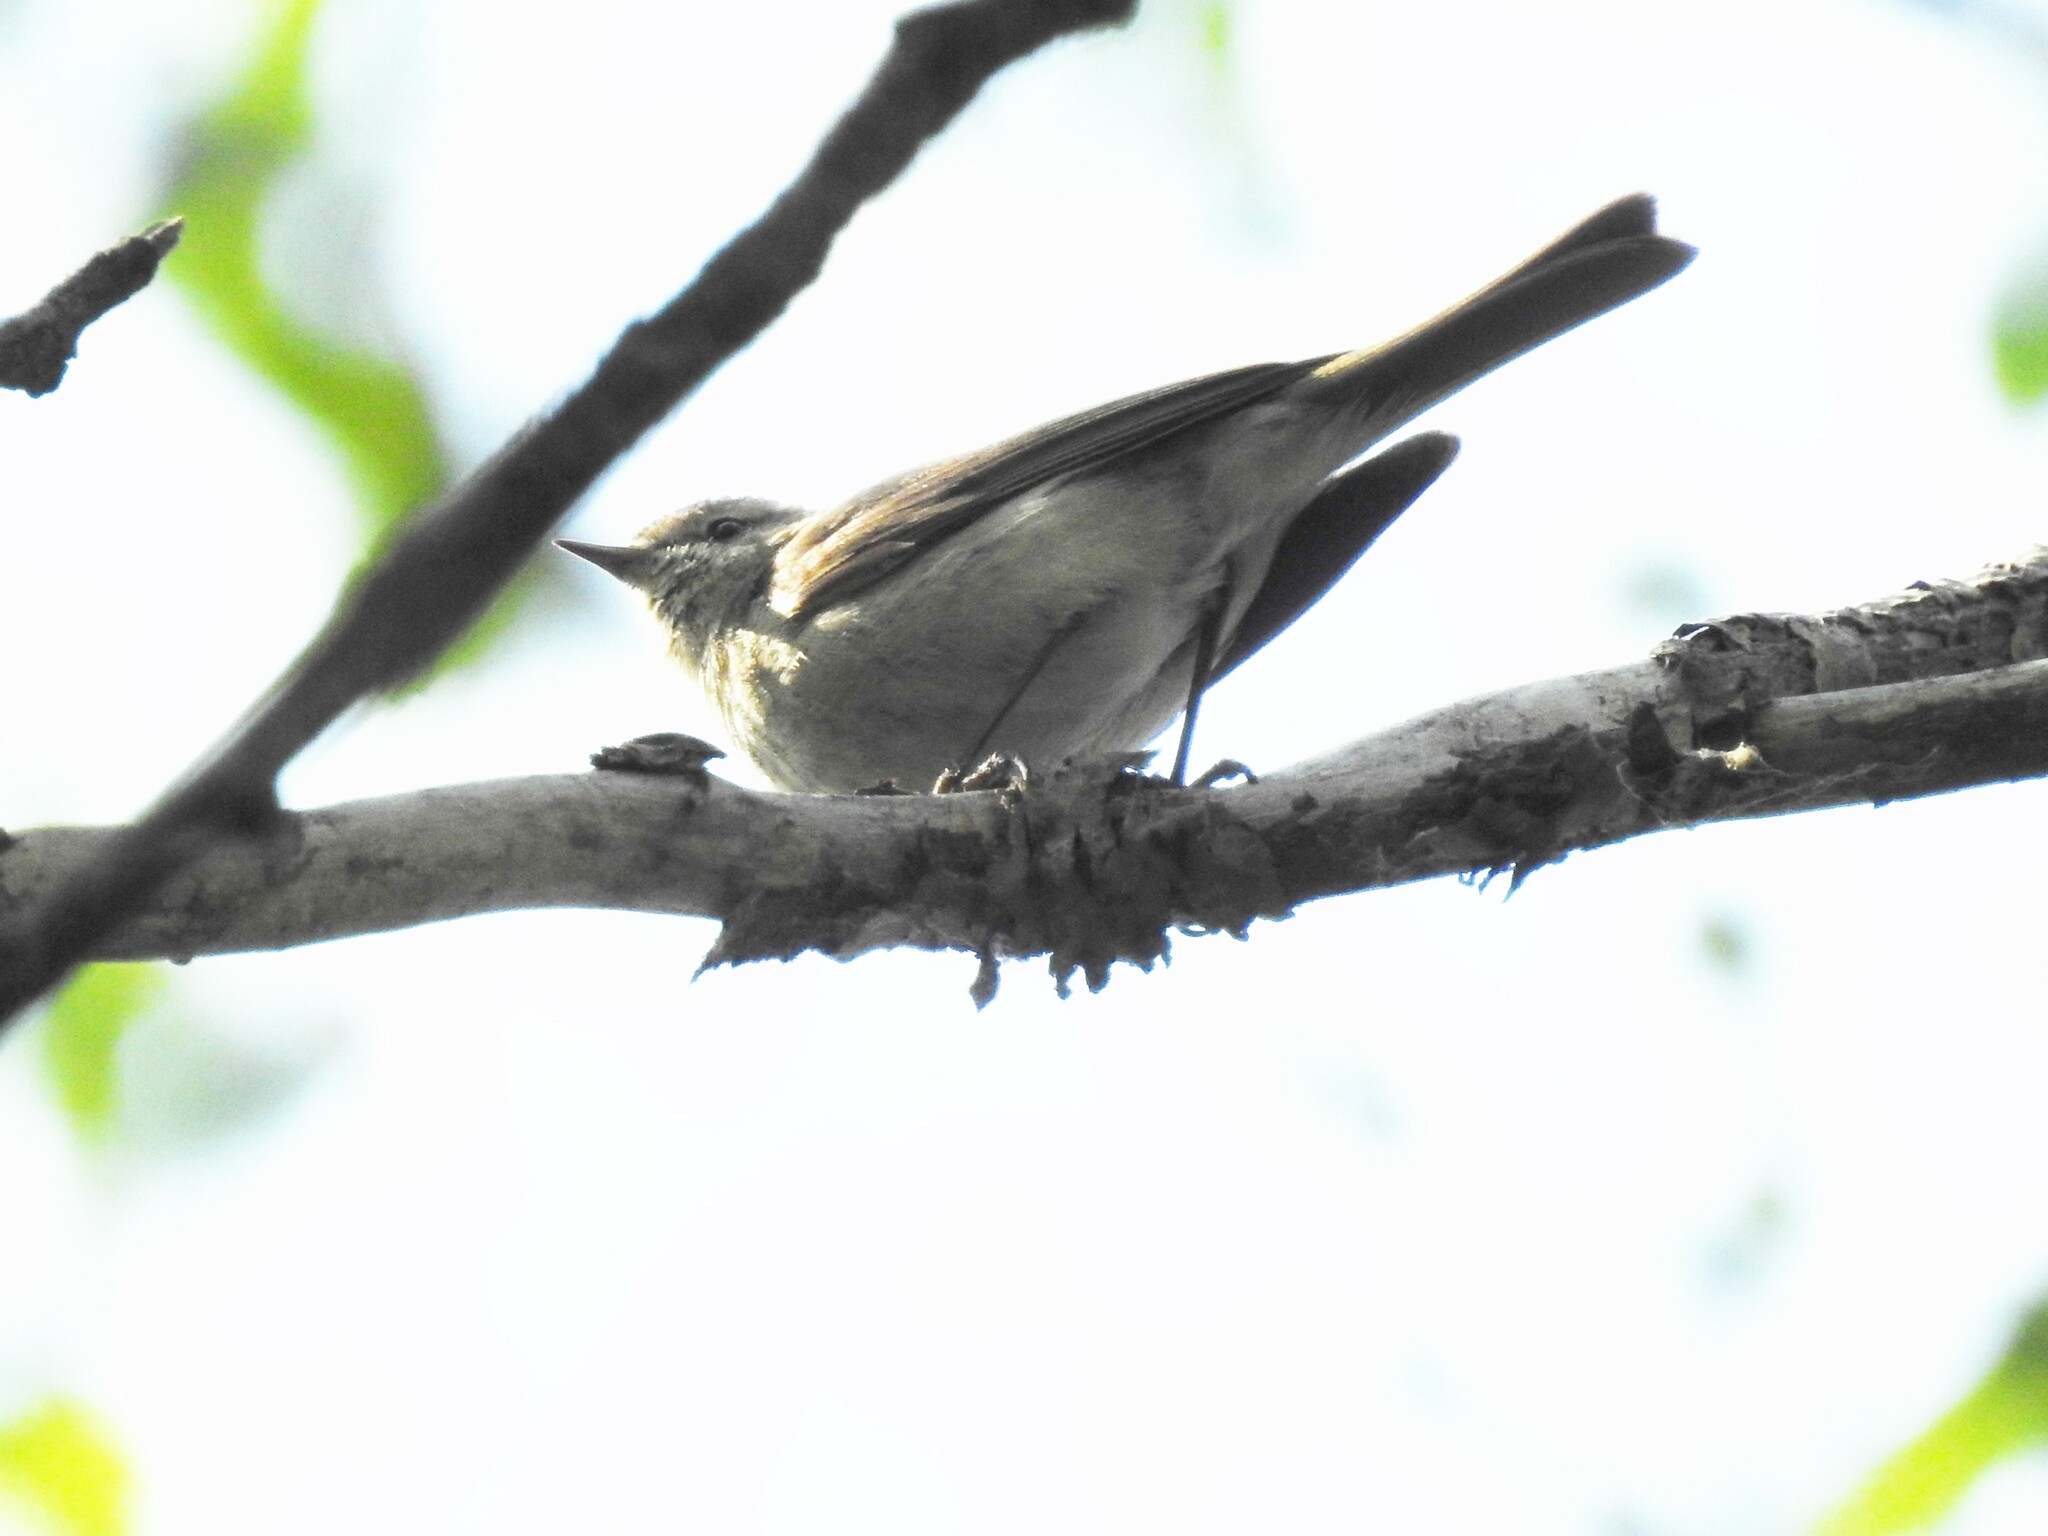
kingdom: Animalia
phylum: Chordata
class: Aves
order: Passeriformes
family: Phylloscopidae
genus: Phylloscopus
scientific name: Phylloscopus collybita
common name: Common chiffchaff
